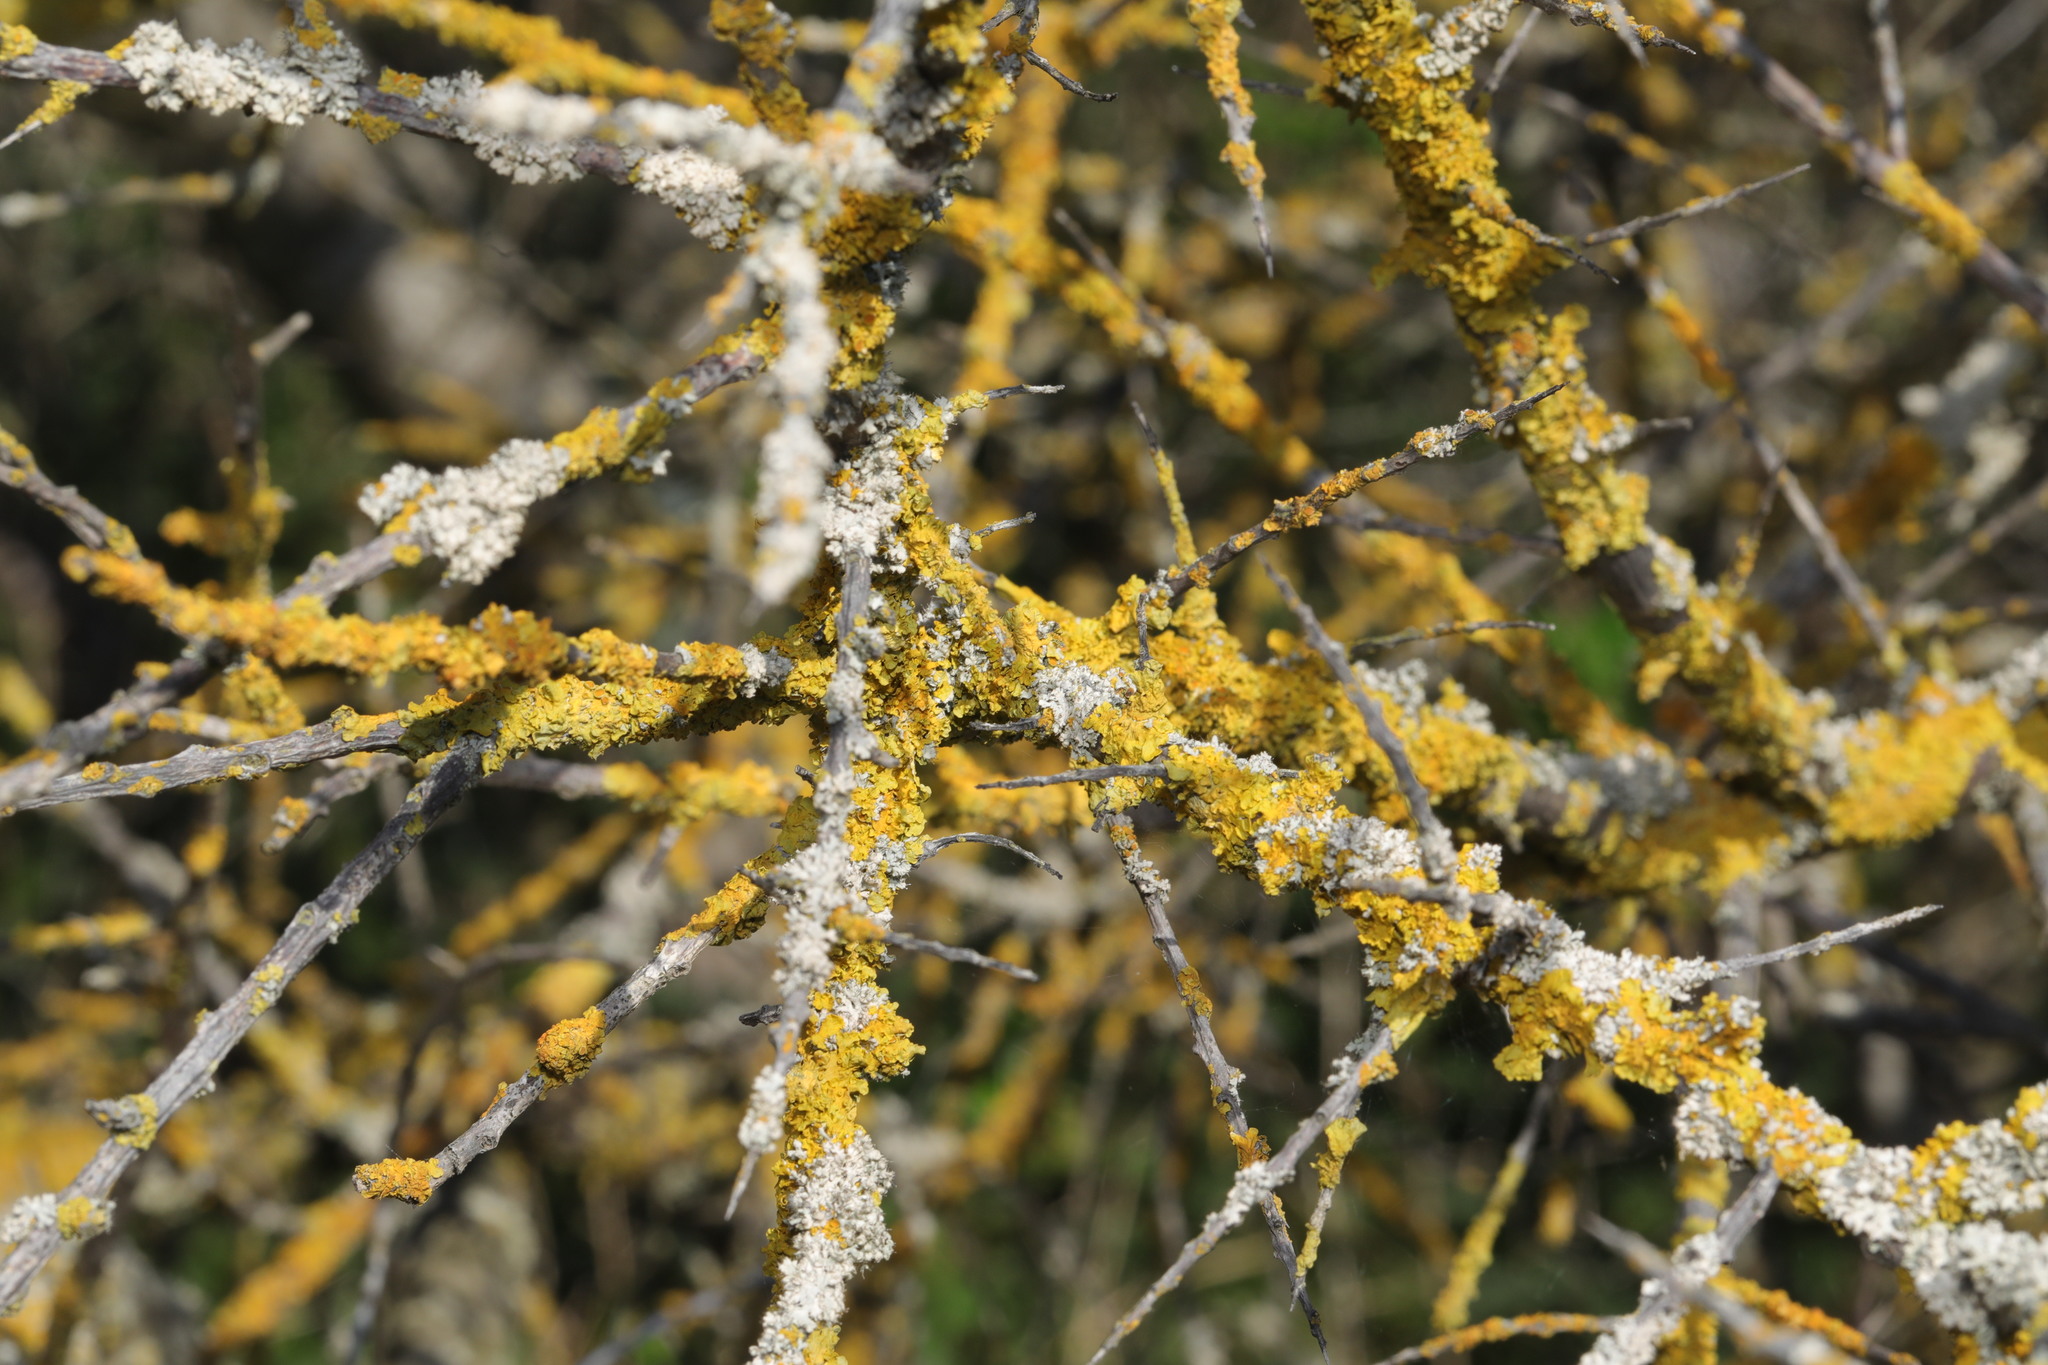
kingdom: Fungi
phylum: Ascomycota
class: Lecanoromycetes
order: Teloschistales
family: Teloschistaceae
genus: Xanthoria
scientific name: Xanthoria parietina
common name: Common orange lichen
